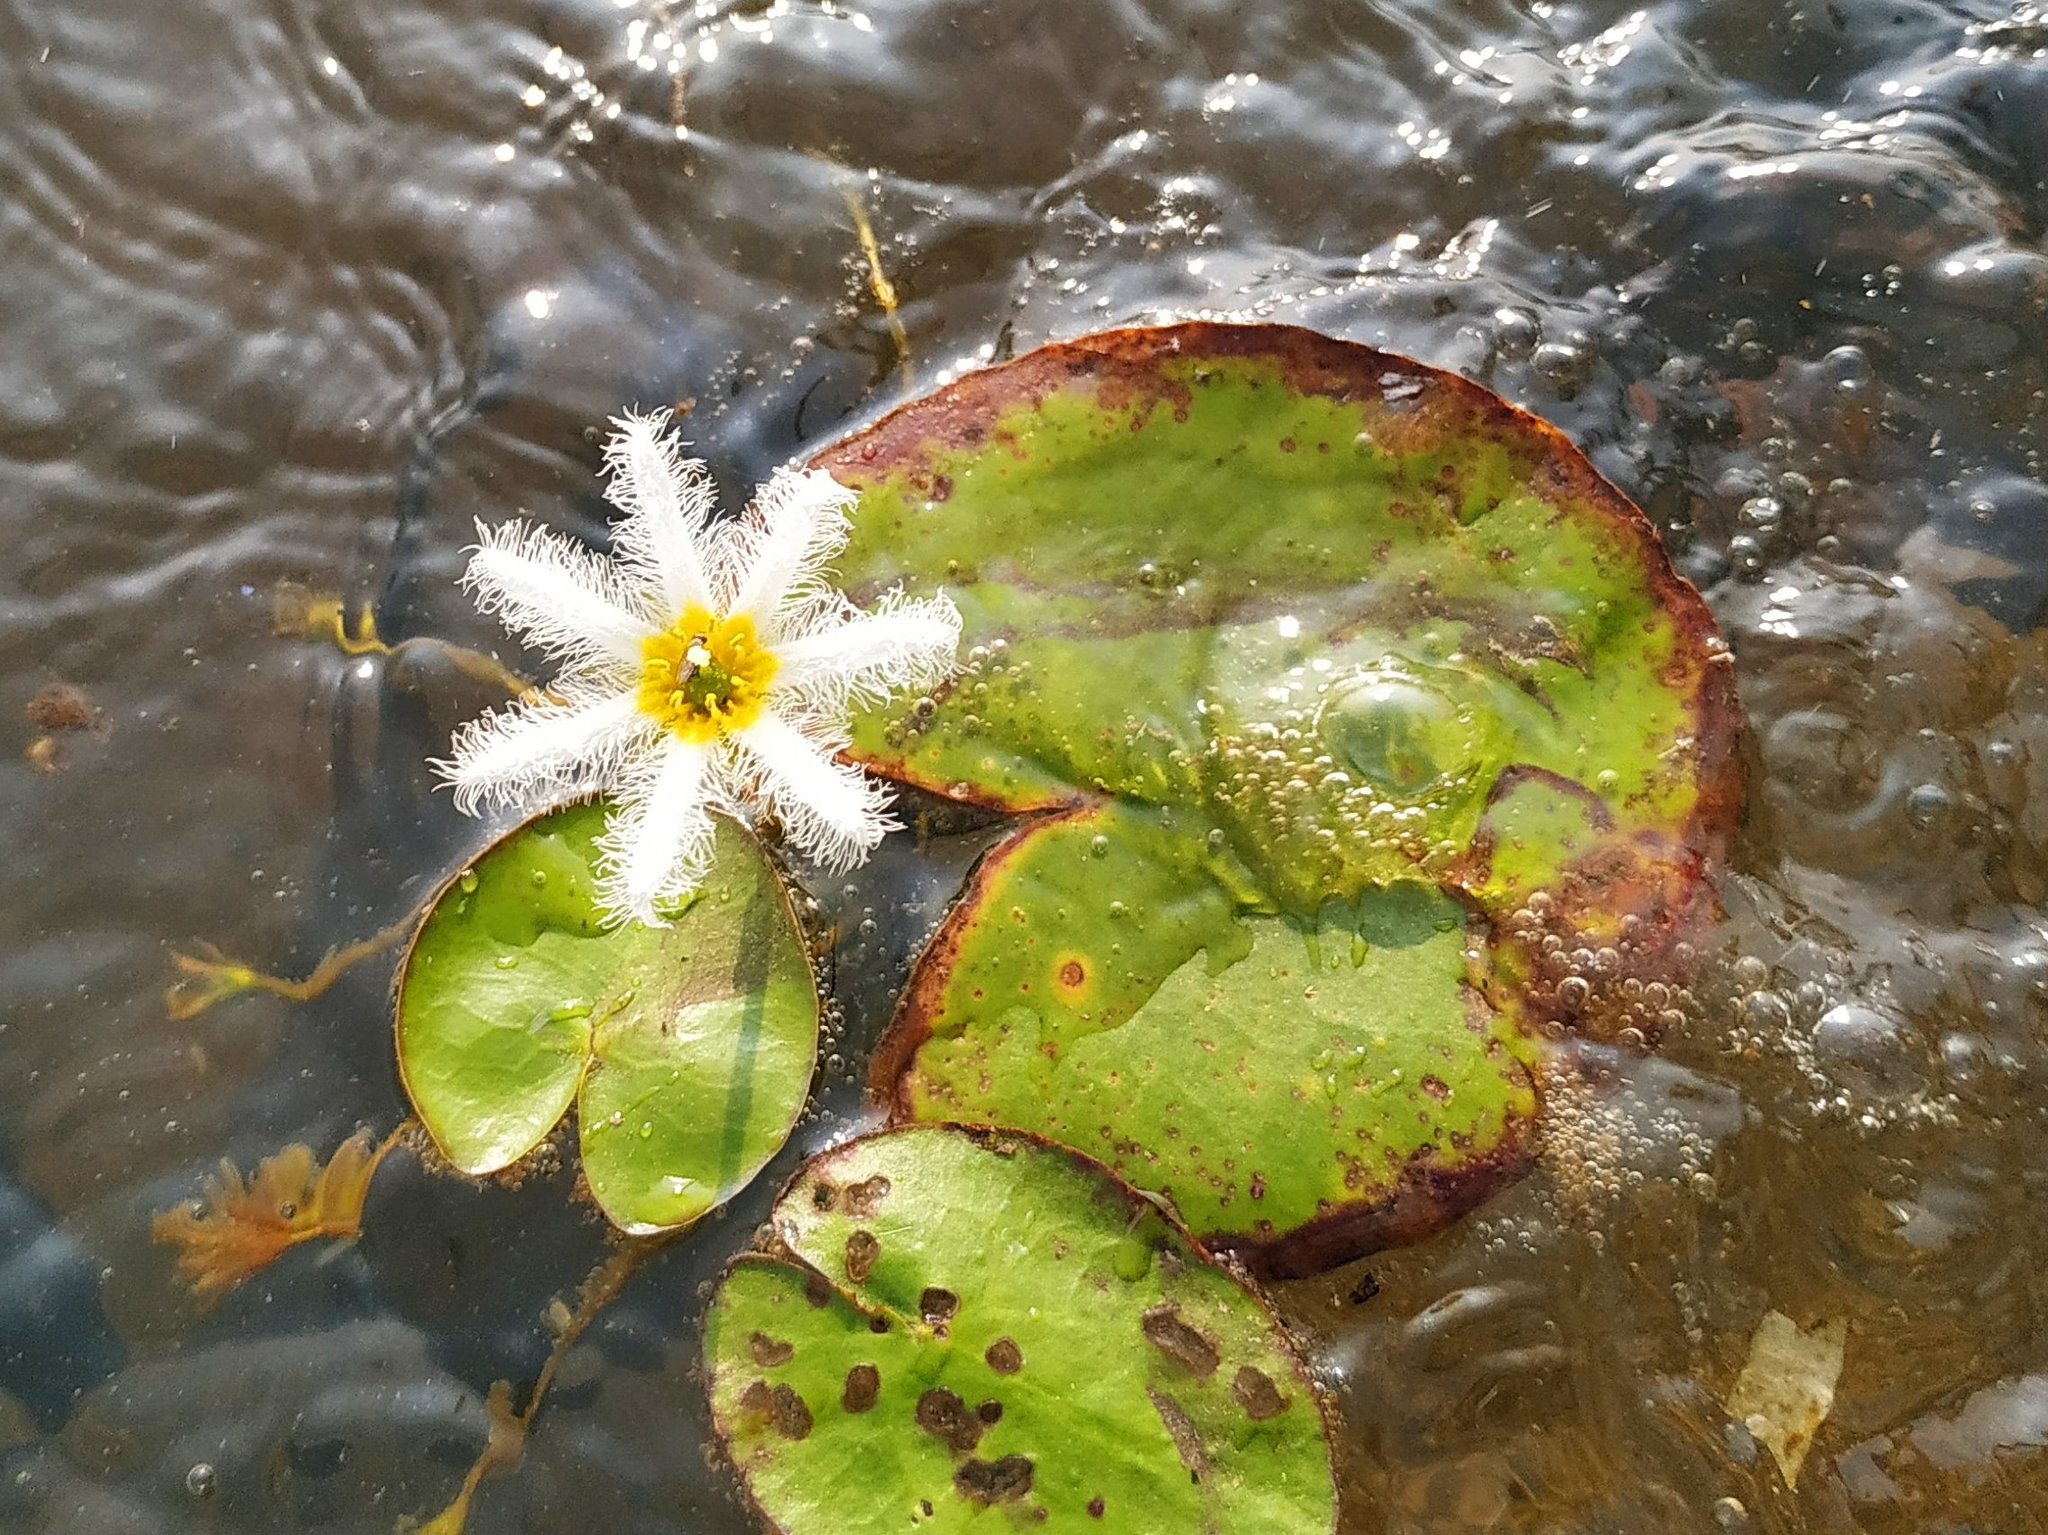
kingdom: Plantae
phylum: Tracheophyta
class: Magnoliopsida
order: Asterales
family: Menyanthaceae
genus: Nymphoides
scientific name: Nymphoides indica
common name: Water-snowflake
